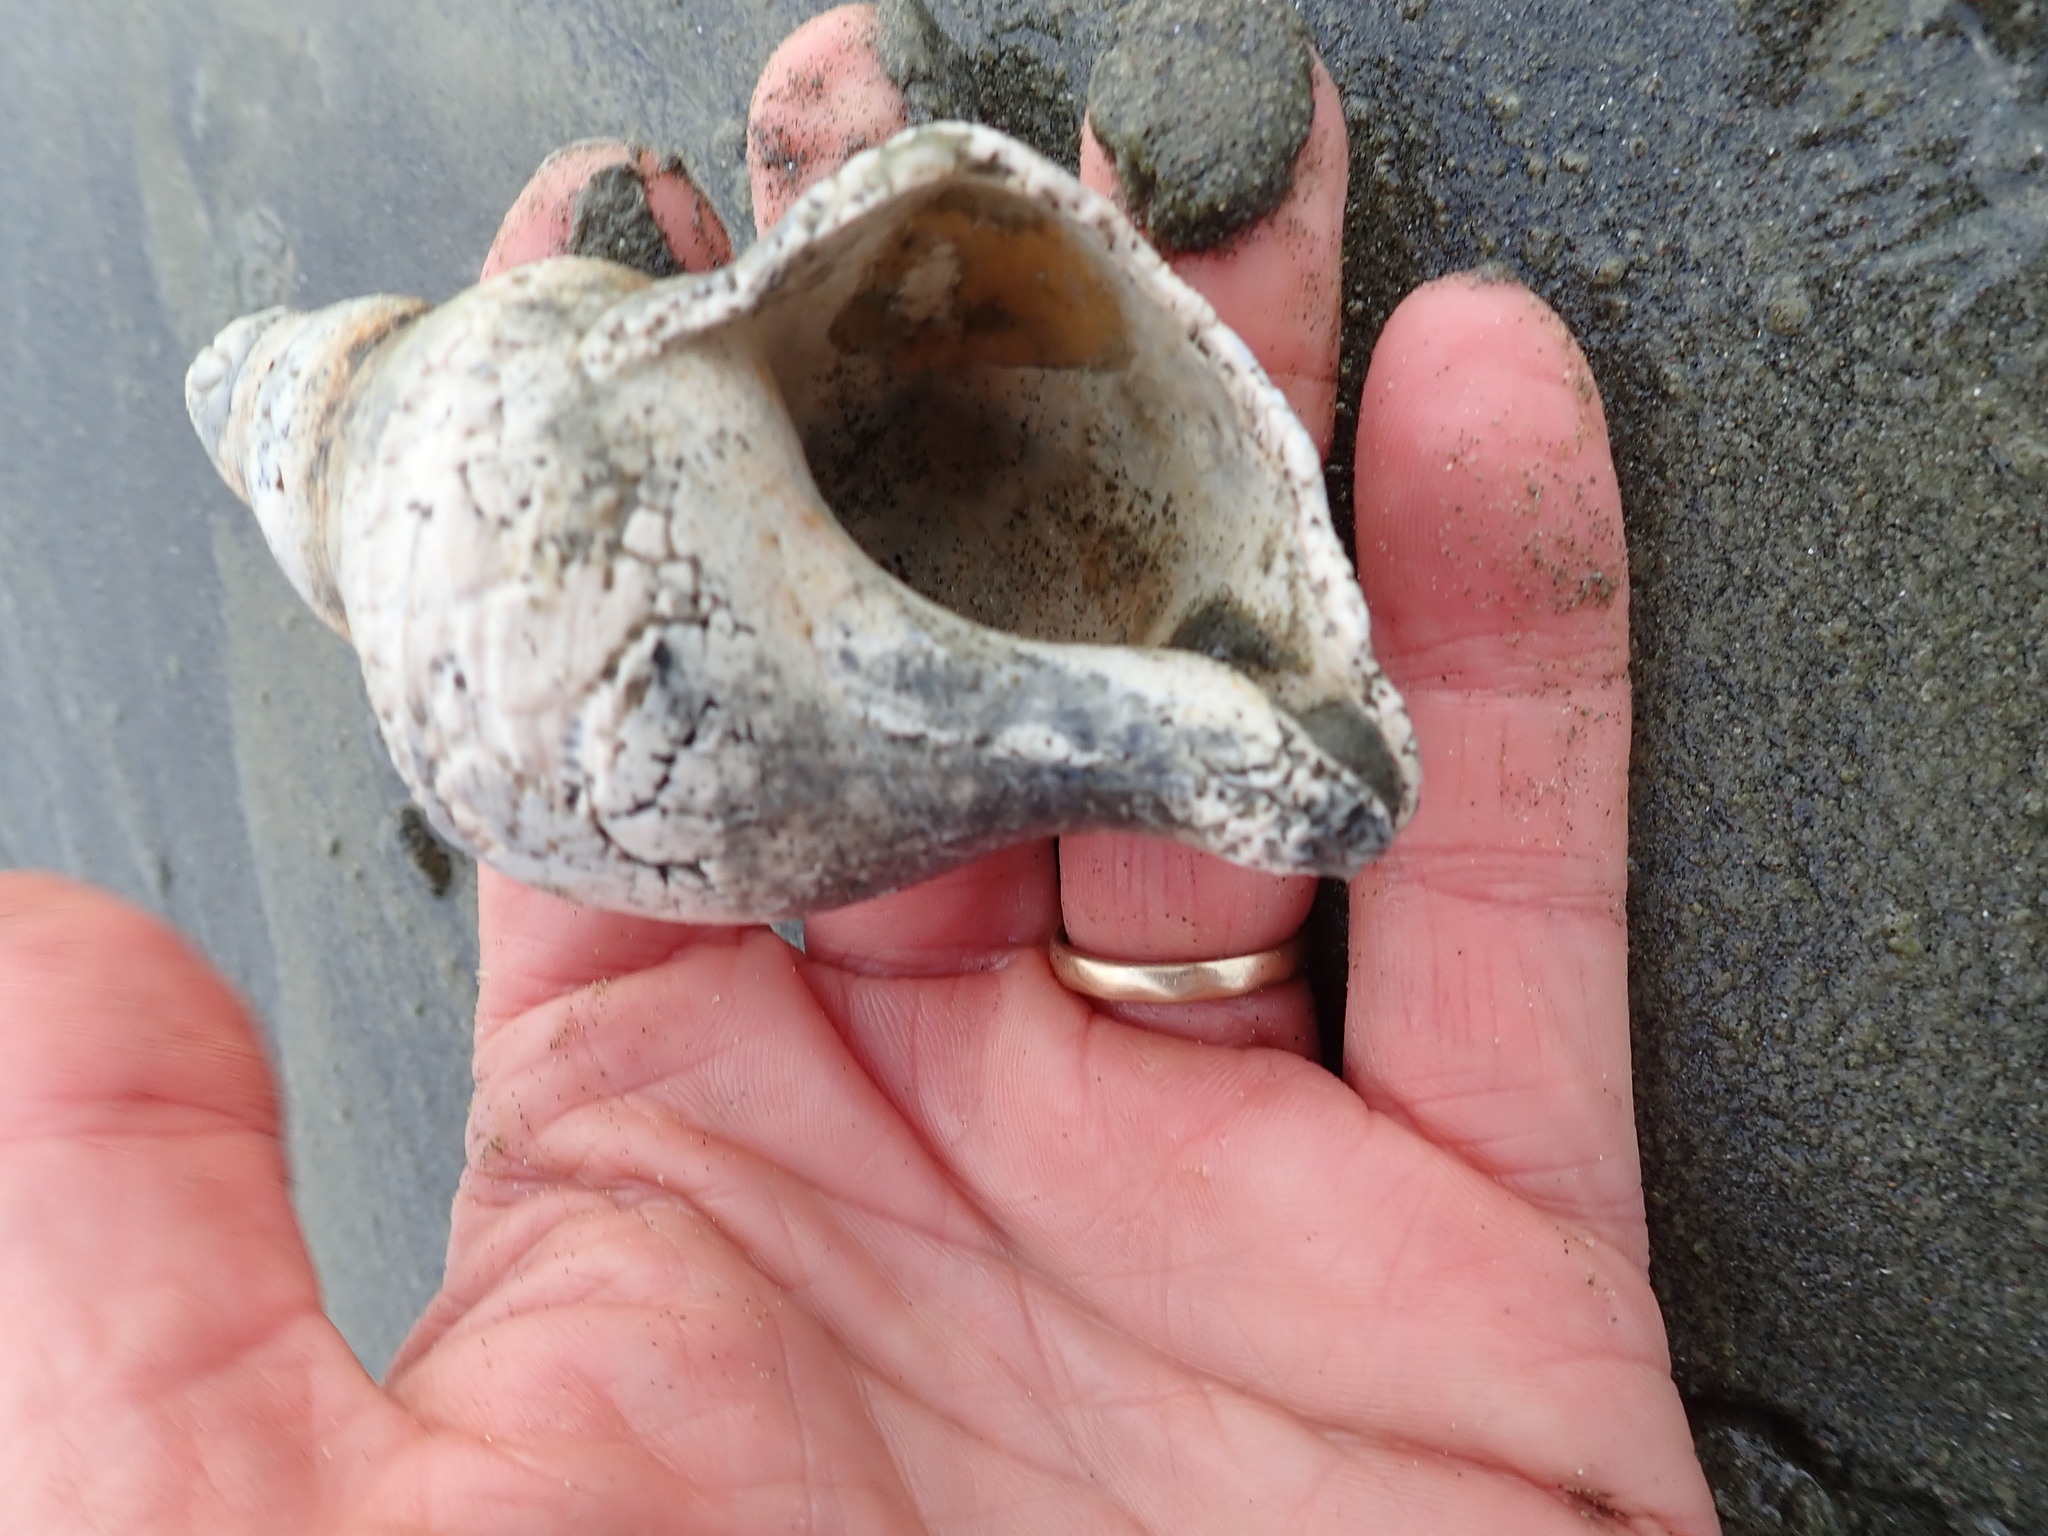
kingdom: Animalia
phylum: Mollusca
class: Gastropoda
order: Neogastropoda
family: Austrosiphonidae
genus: Penion
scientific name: Penion sulcatus
